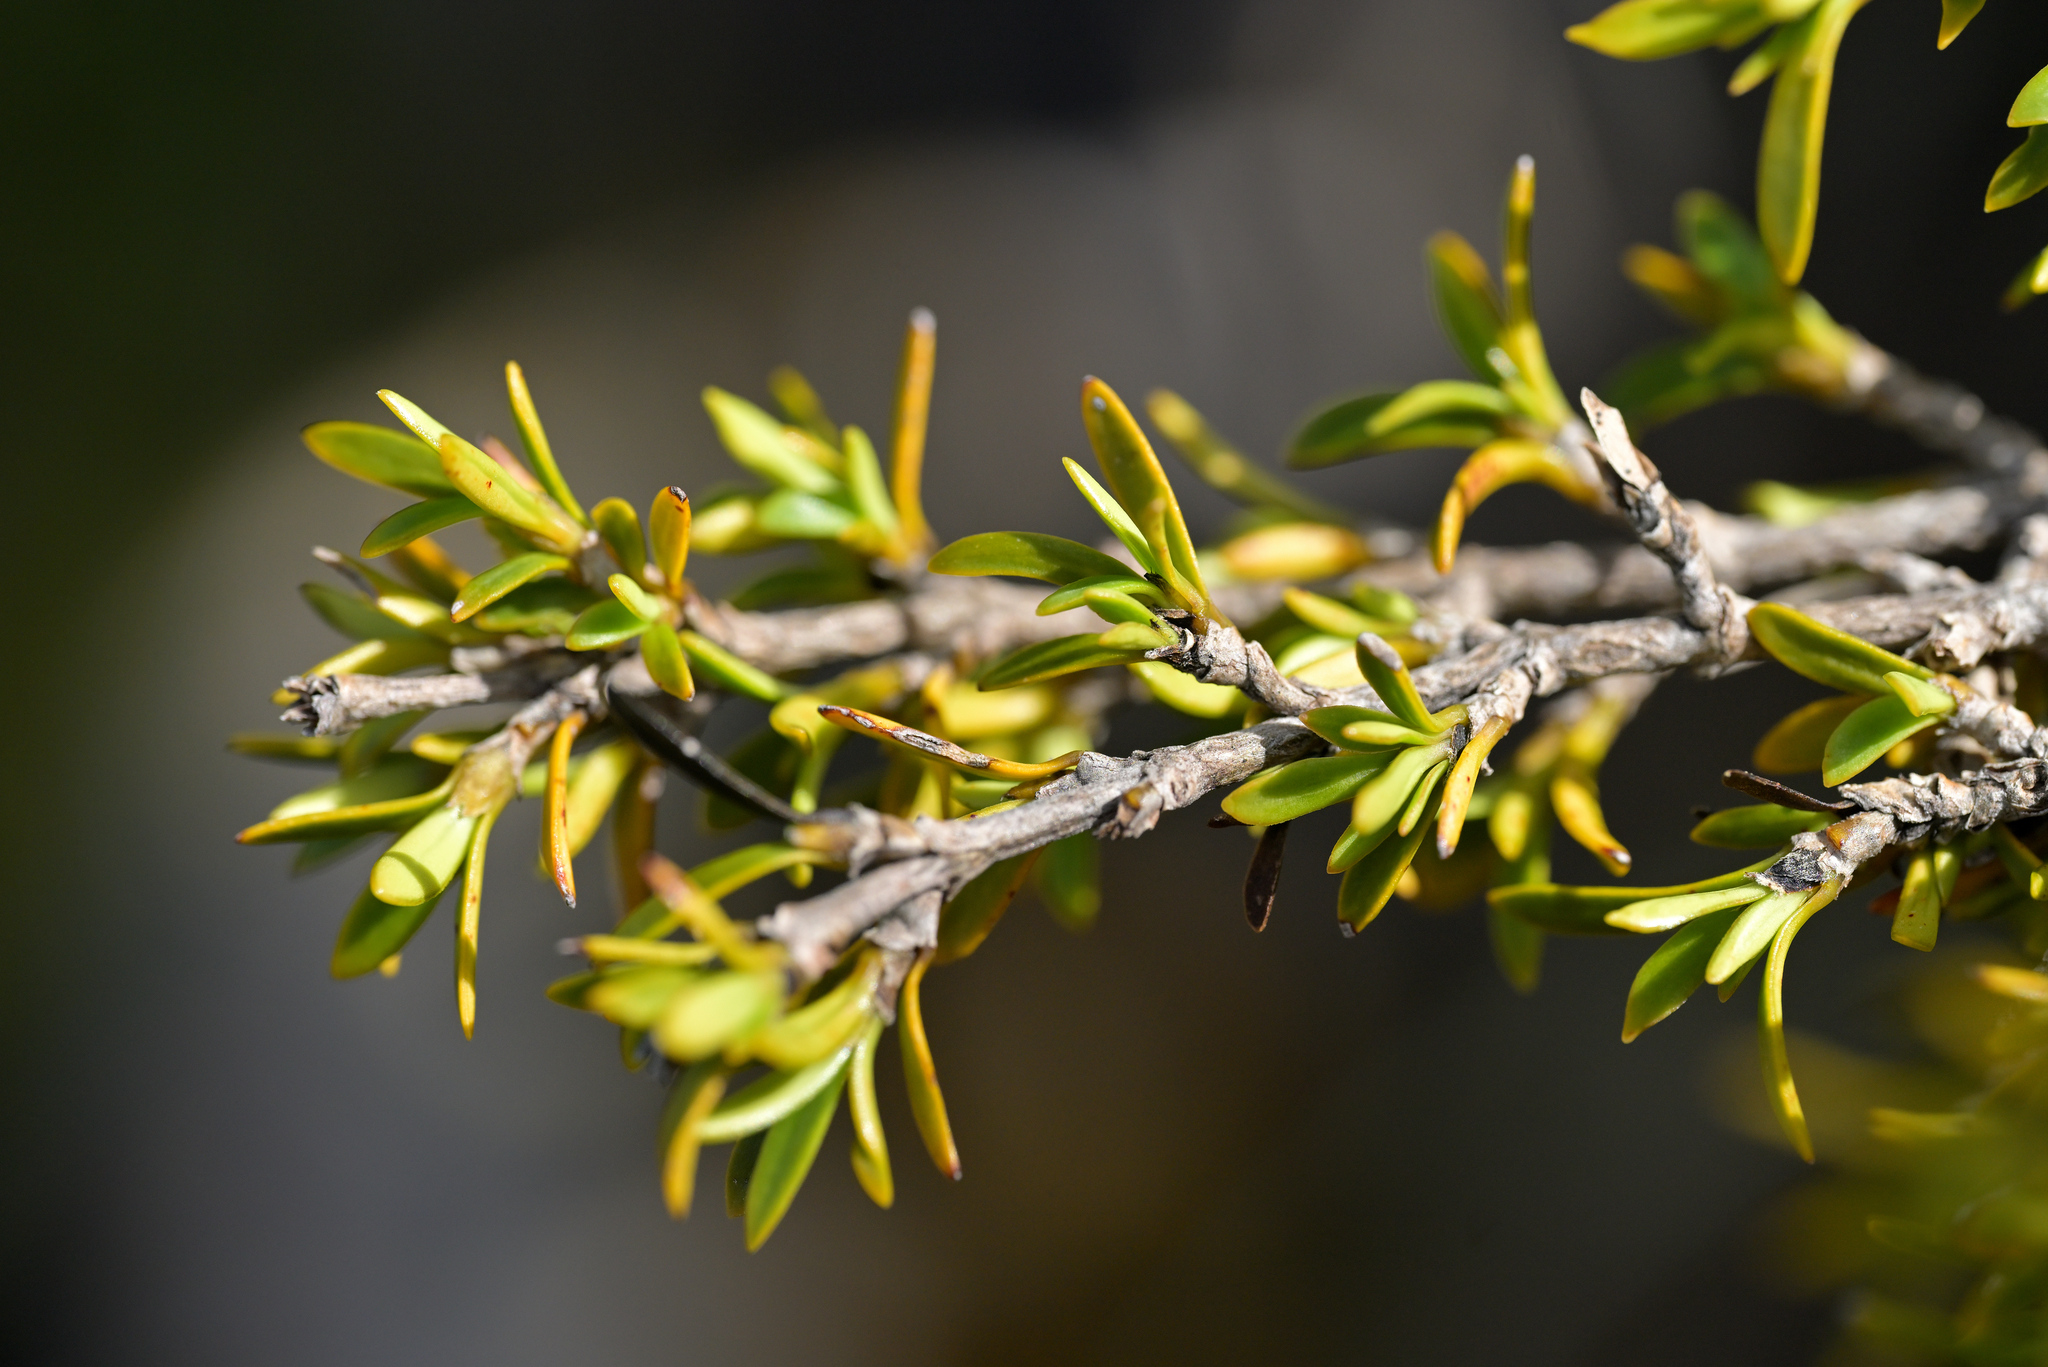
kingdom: Plantae
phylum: Tracheophyta
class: Magnoliopsida
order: Gentianales
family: Rubiaceae
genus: Coprosma
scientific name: Coprosma pseudocuneata
